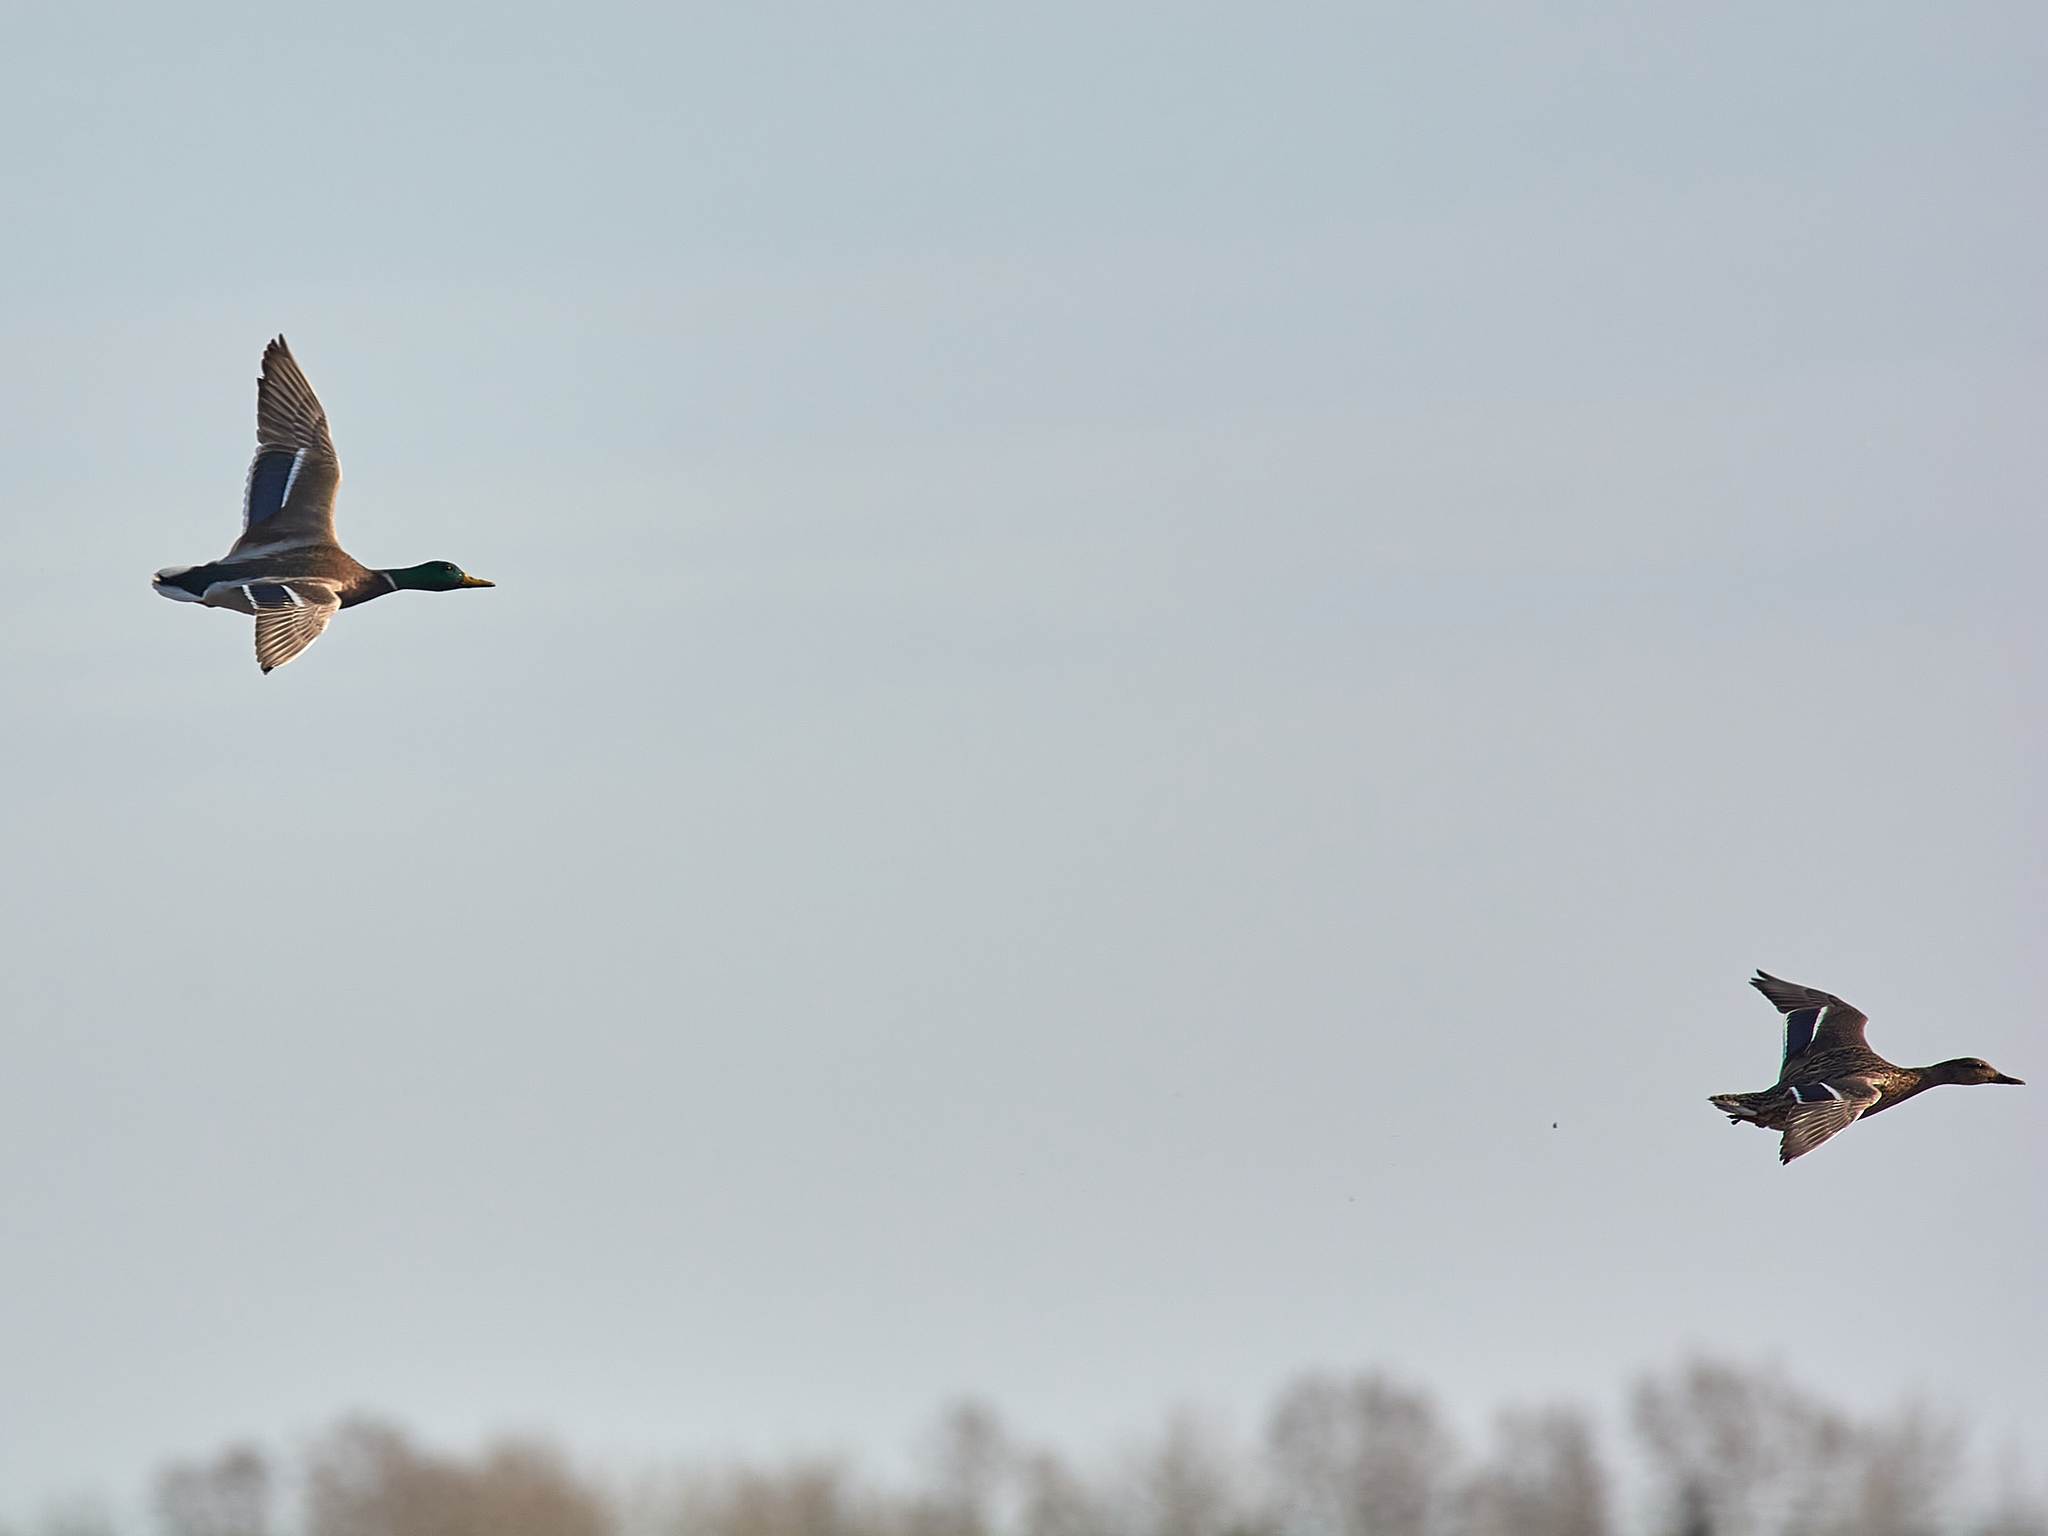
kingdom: Animalia
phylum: Chordata
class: Aves
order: Anseriformes
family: Anatidae
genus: Anas
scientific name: Anas platyrhynchos
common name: Mallard
